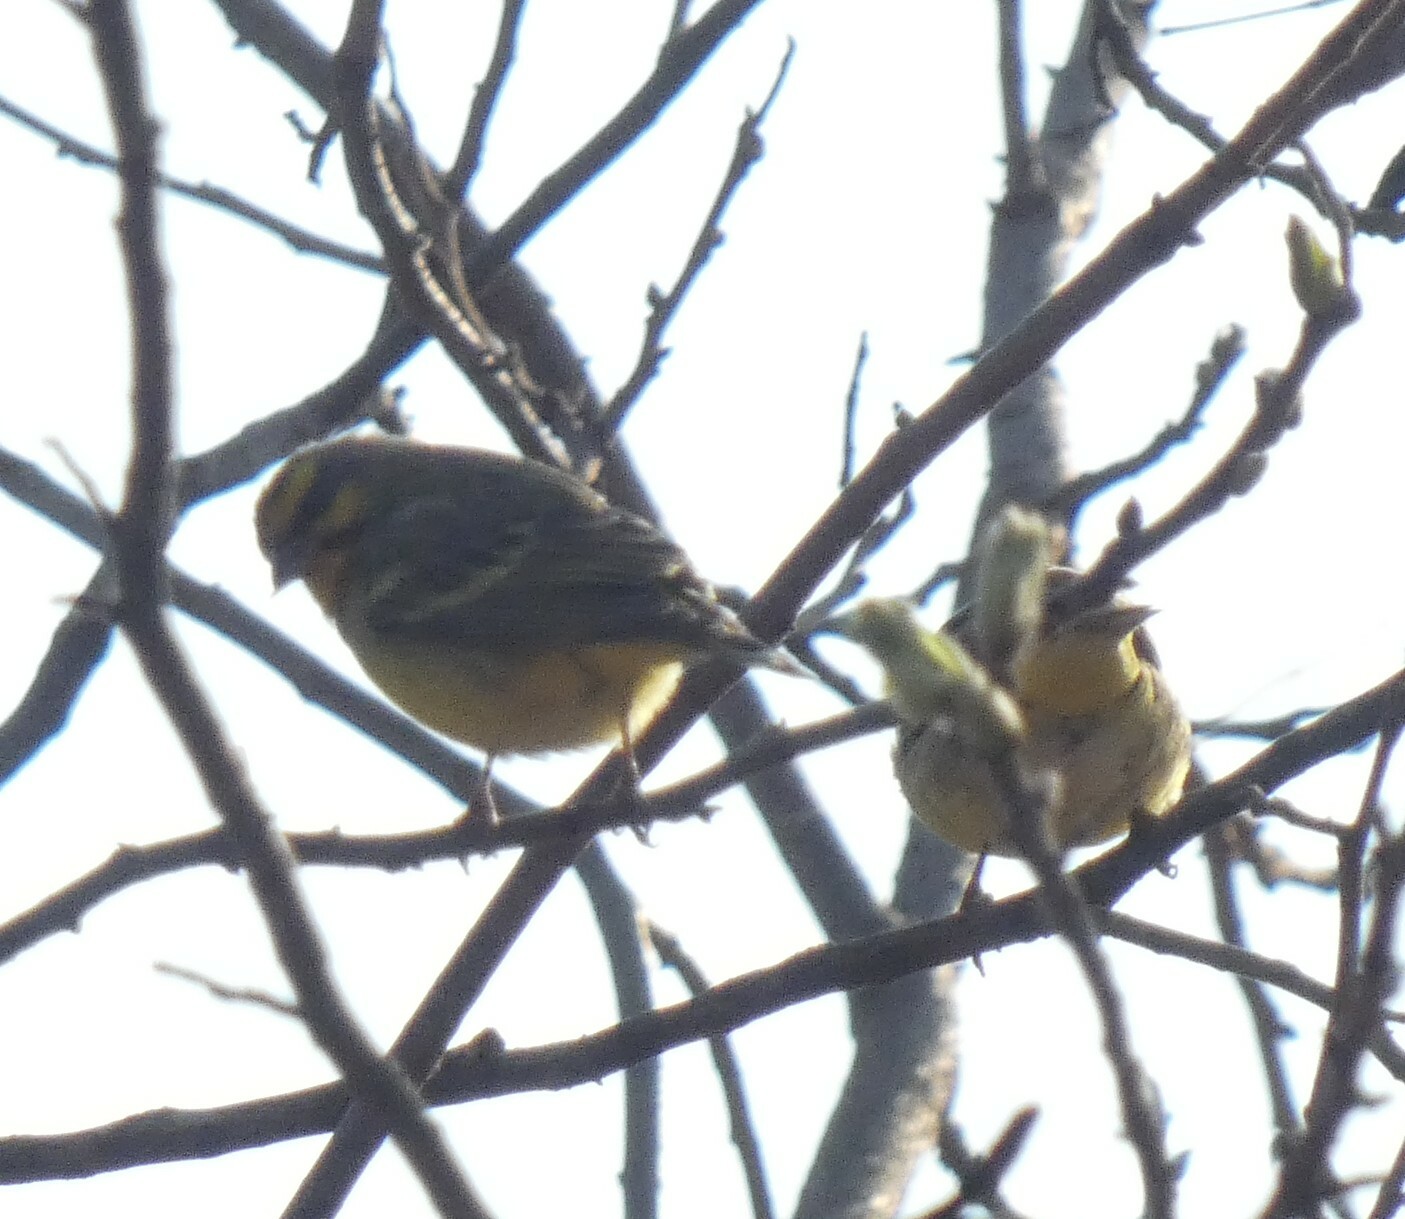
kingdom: Animalia
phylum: Chordata
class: Aves
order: Passeriformes
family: Fringillidae
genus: Crithagra
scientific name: Crithagra mozambica
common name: Yellow-fronted canary
